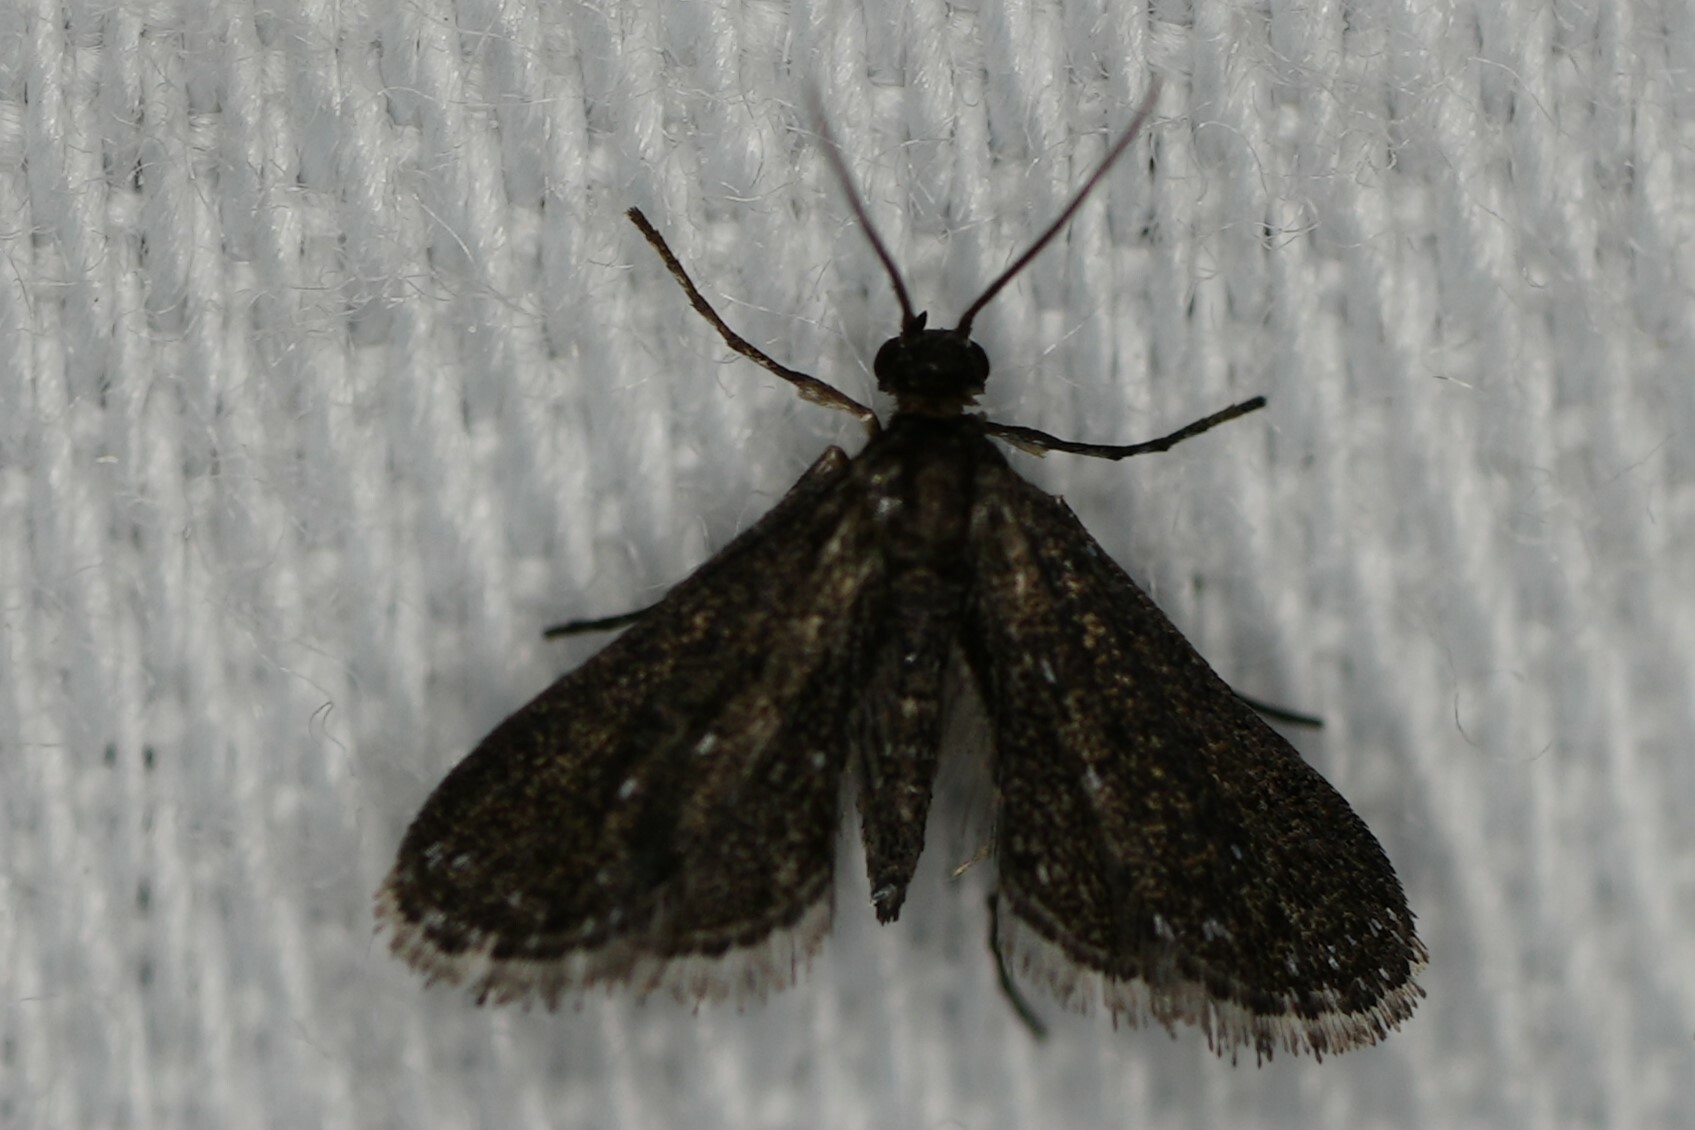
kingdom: Animalia
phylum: Arthropoda
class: Insecta
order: Lepidoptera
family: Crambidae
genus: Elophila
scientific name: Elophila tinealis
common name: Black duckweed moth
